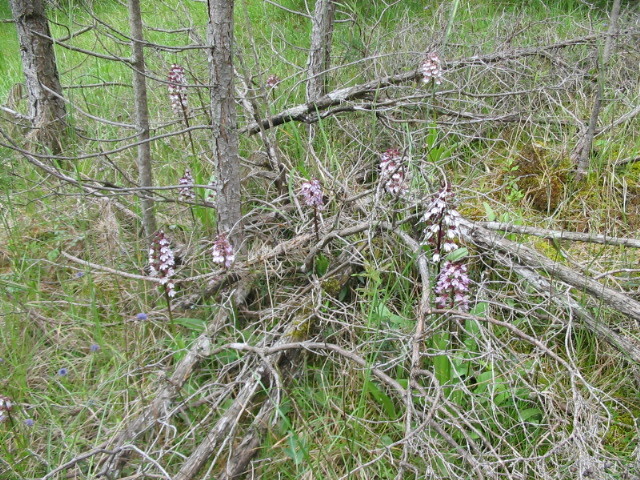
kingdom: Plantae
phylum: Tracheophyta
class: Liliopsida
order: Asparagales
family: Orchidaceae
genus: Orchis
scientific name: Orchis purpurea
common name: Lady orchid
